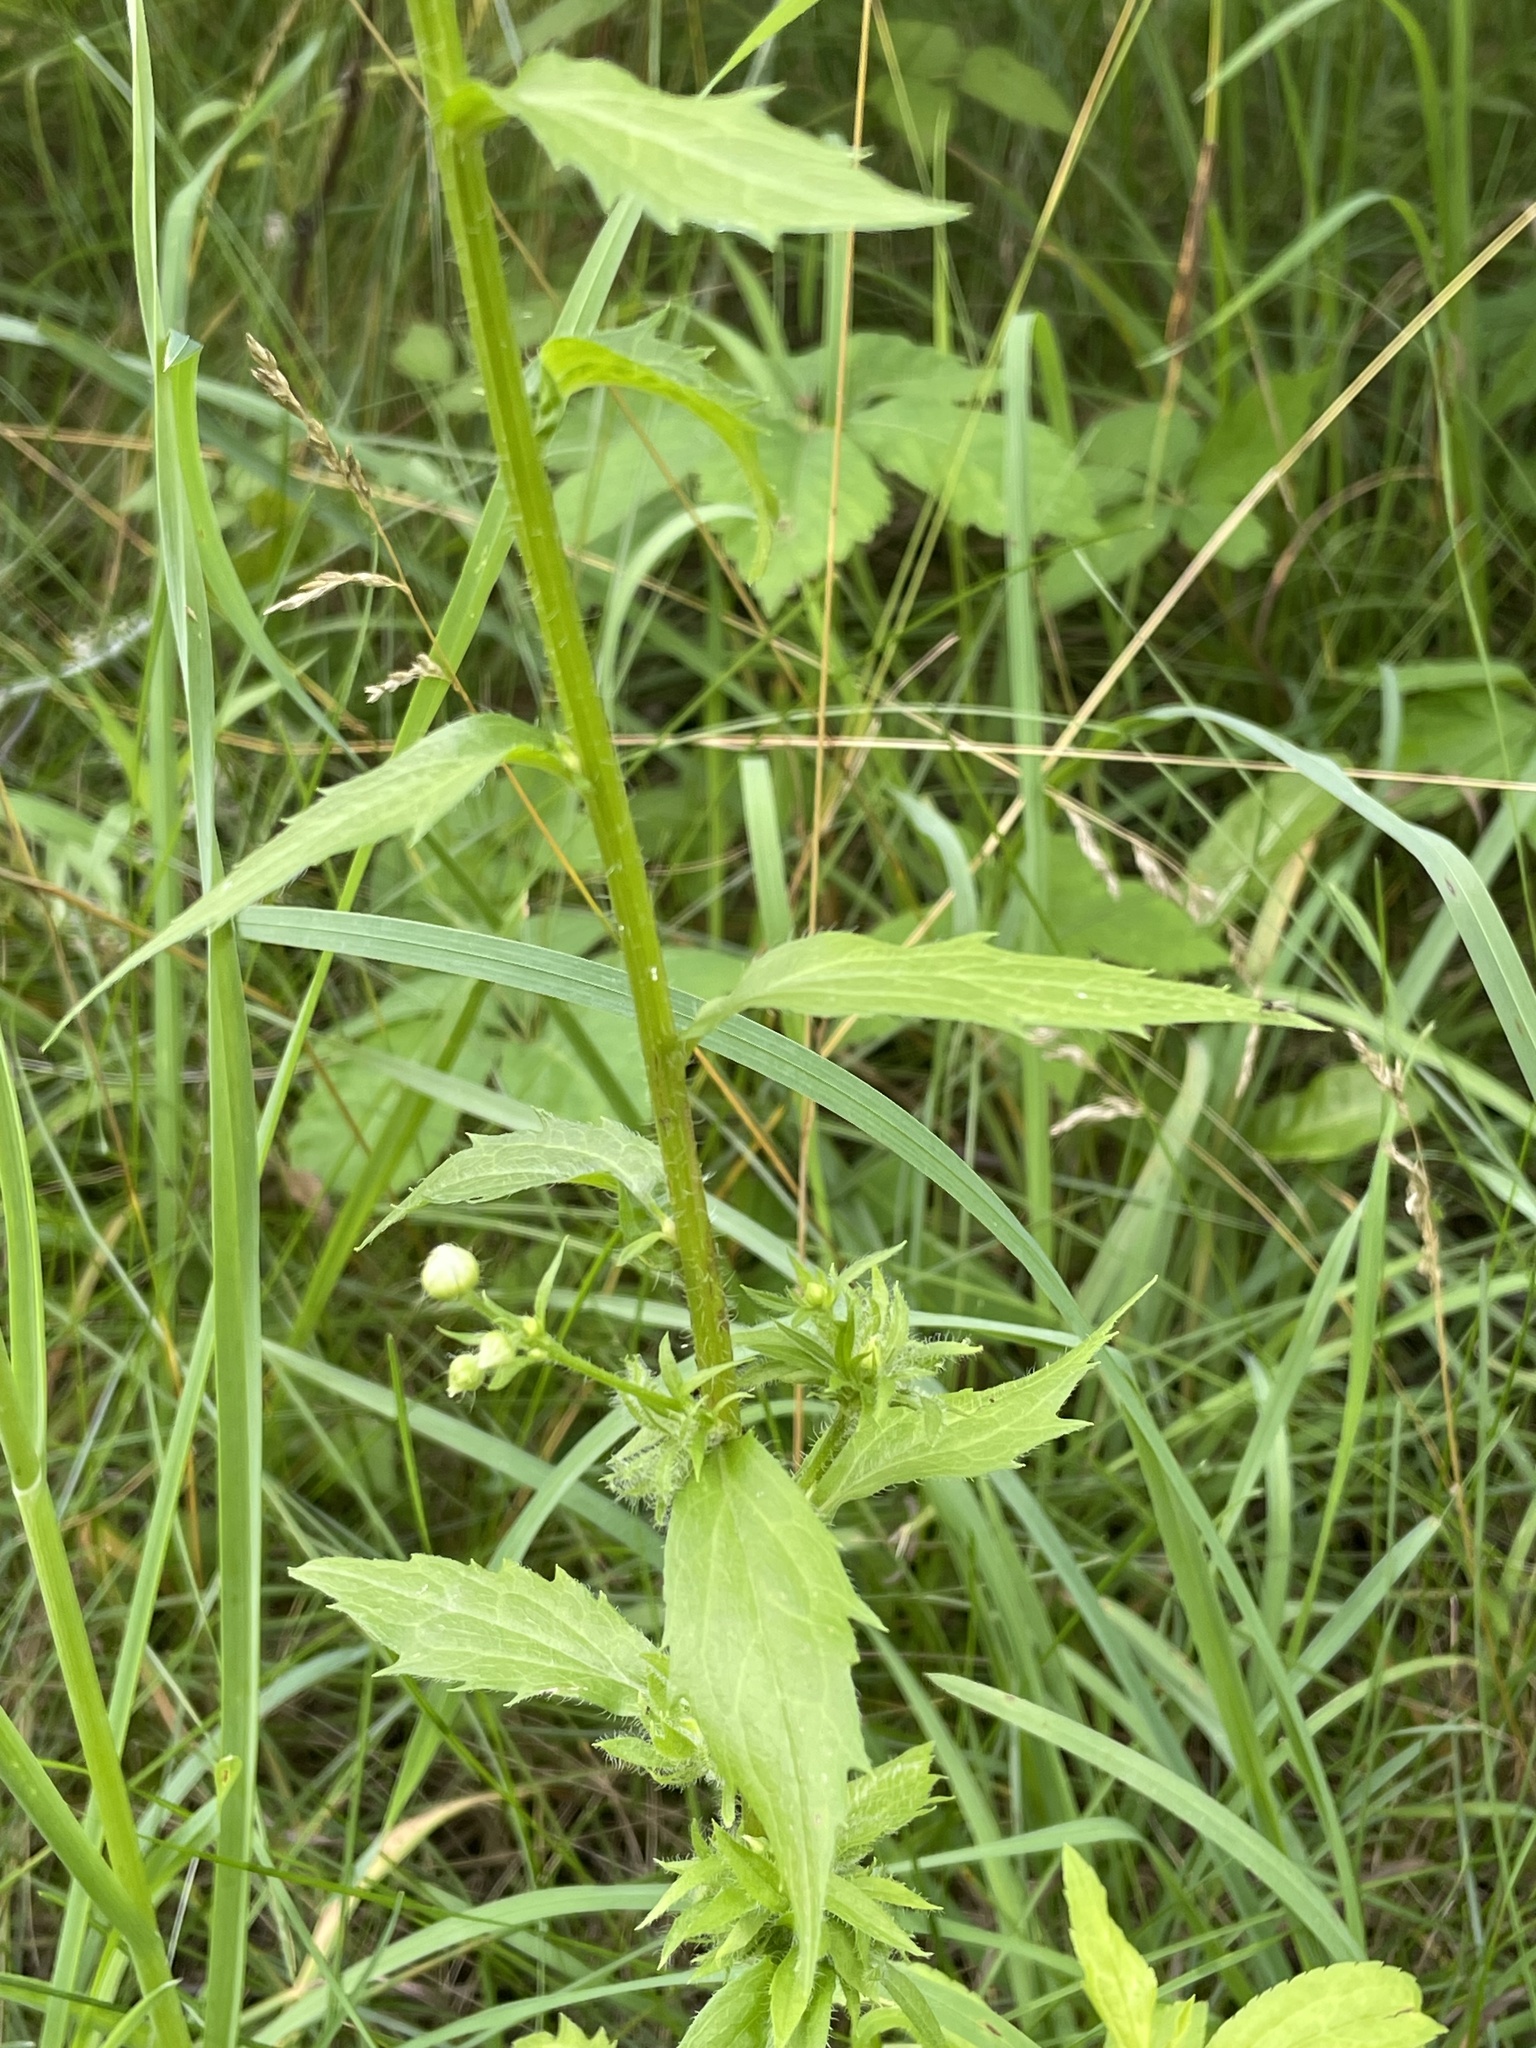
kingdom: Plantae
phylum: Tracheophyta
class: Magnoliopsida
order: Asterales
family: Asteraceae
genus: Erigeron
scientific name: Erigeron annuus
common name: Tall fleabane
